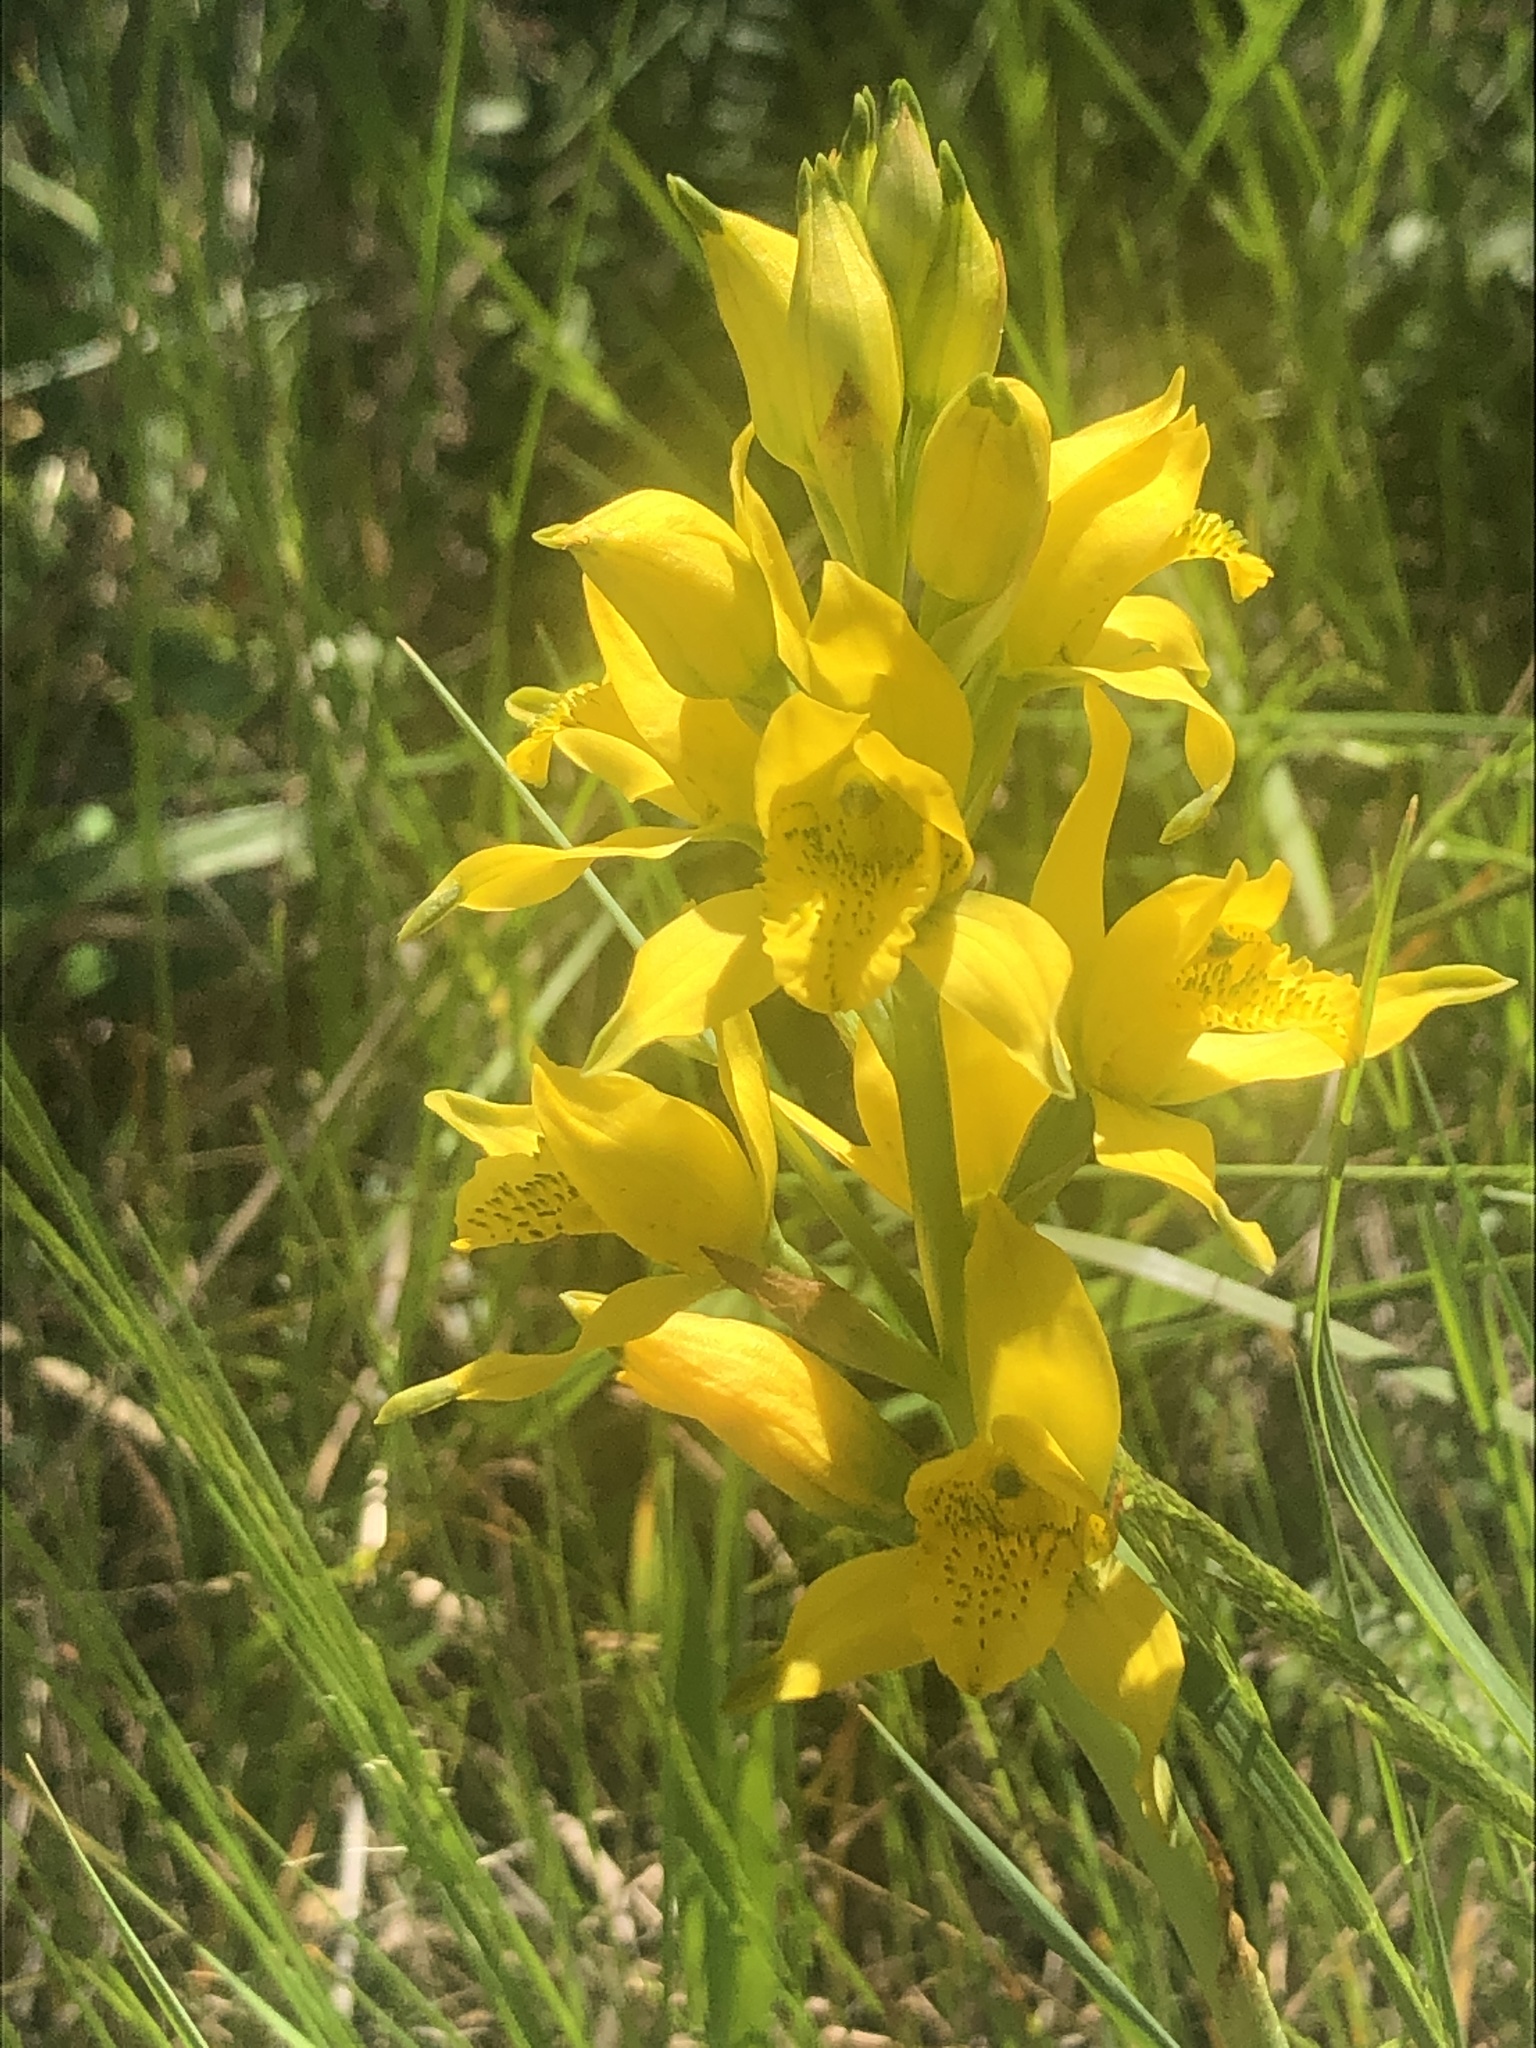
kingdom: Plantae
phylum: Tracheophyta
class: Liliopsida
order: Asparagales
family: Orchidaceae
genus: Chloraea
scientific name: Chloraea lamellata
